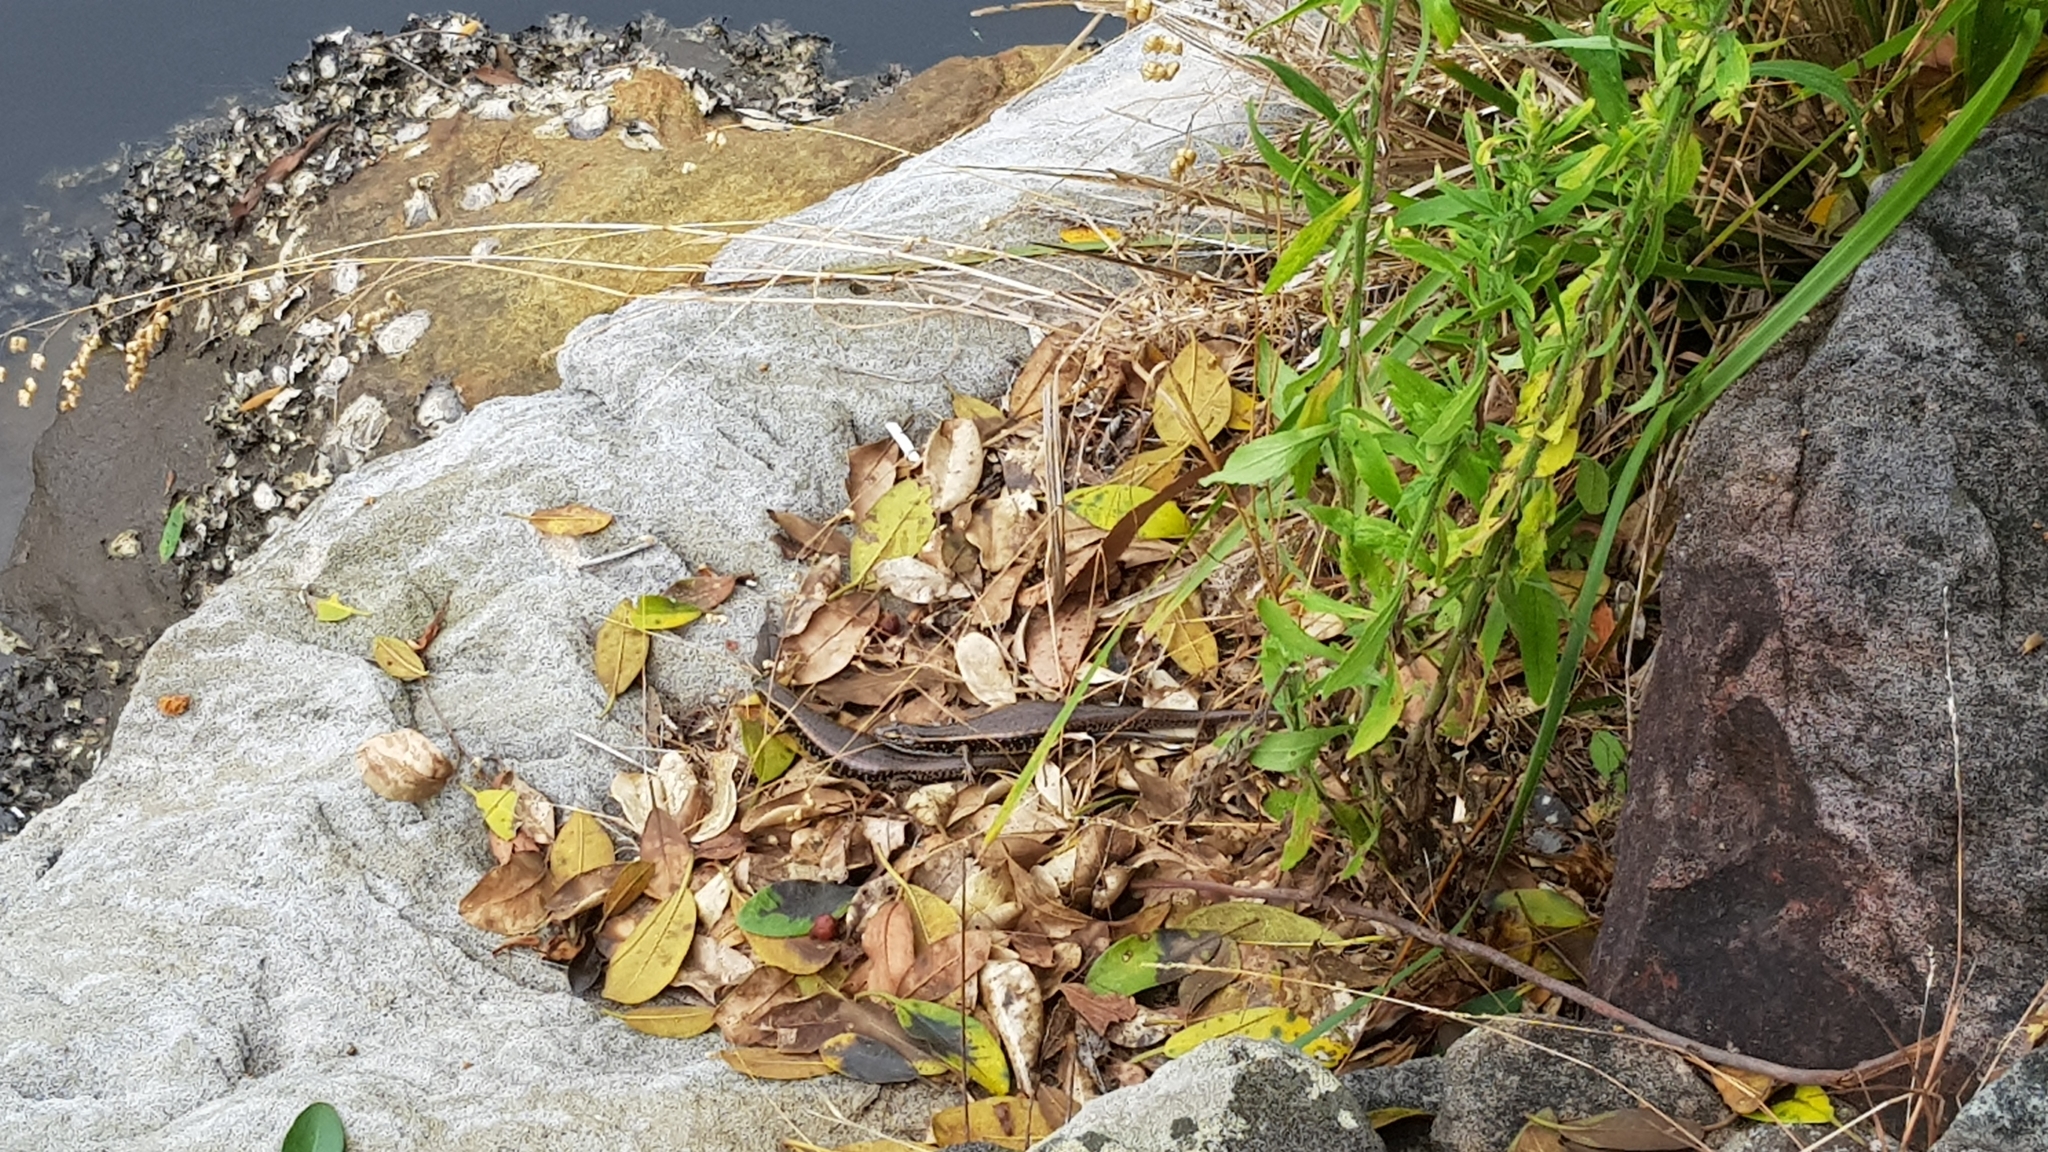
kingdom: Animalia
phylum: Chordata
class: Squamata
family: Scincidae
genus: Eulamprus
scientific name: Eulamprus quoyii
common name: Eastern water skink
